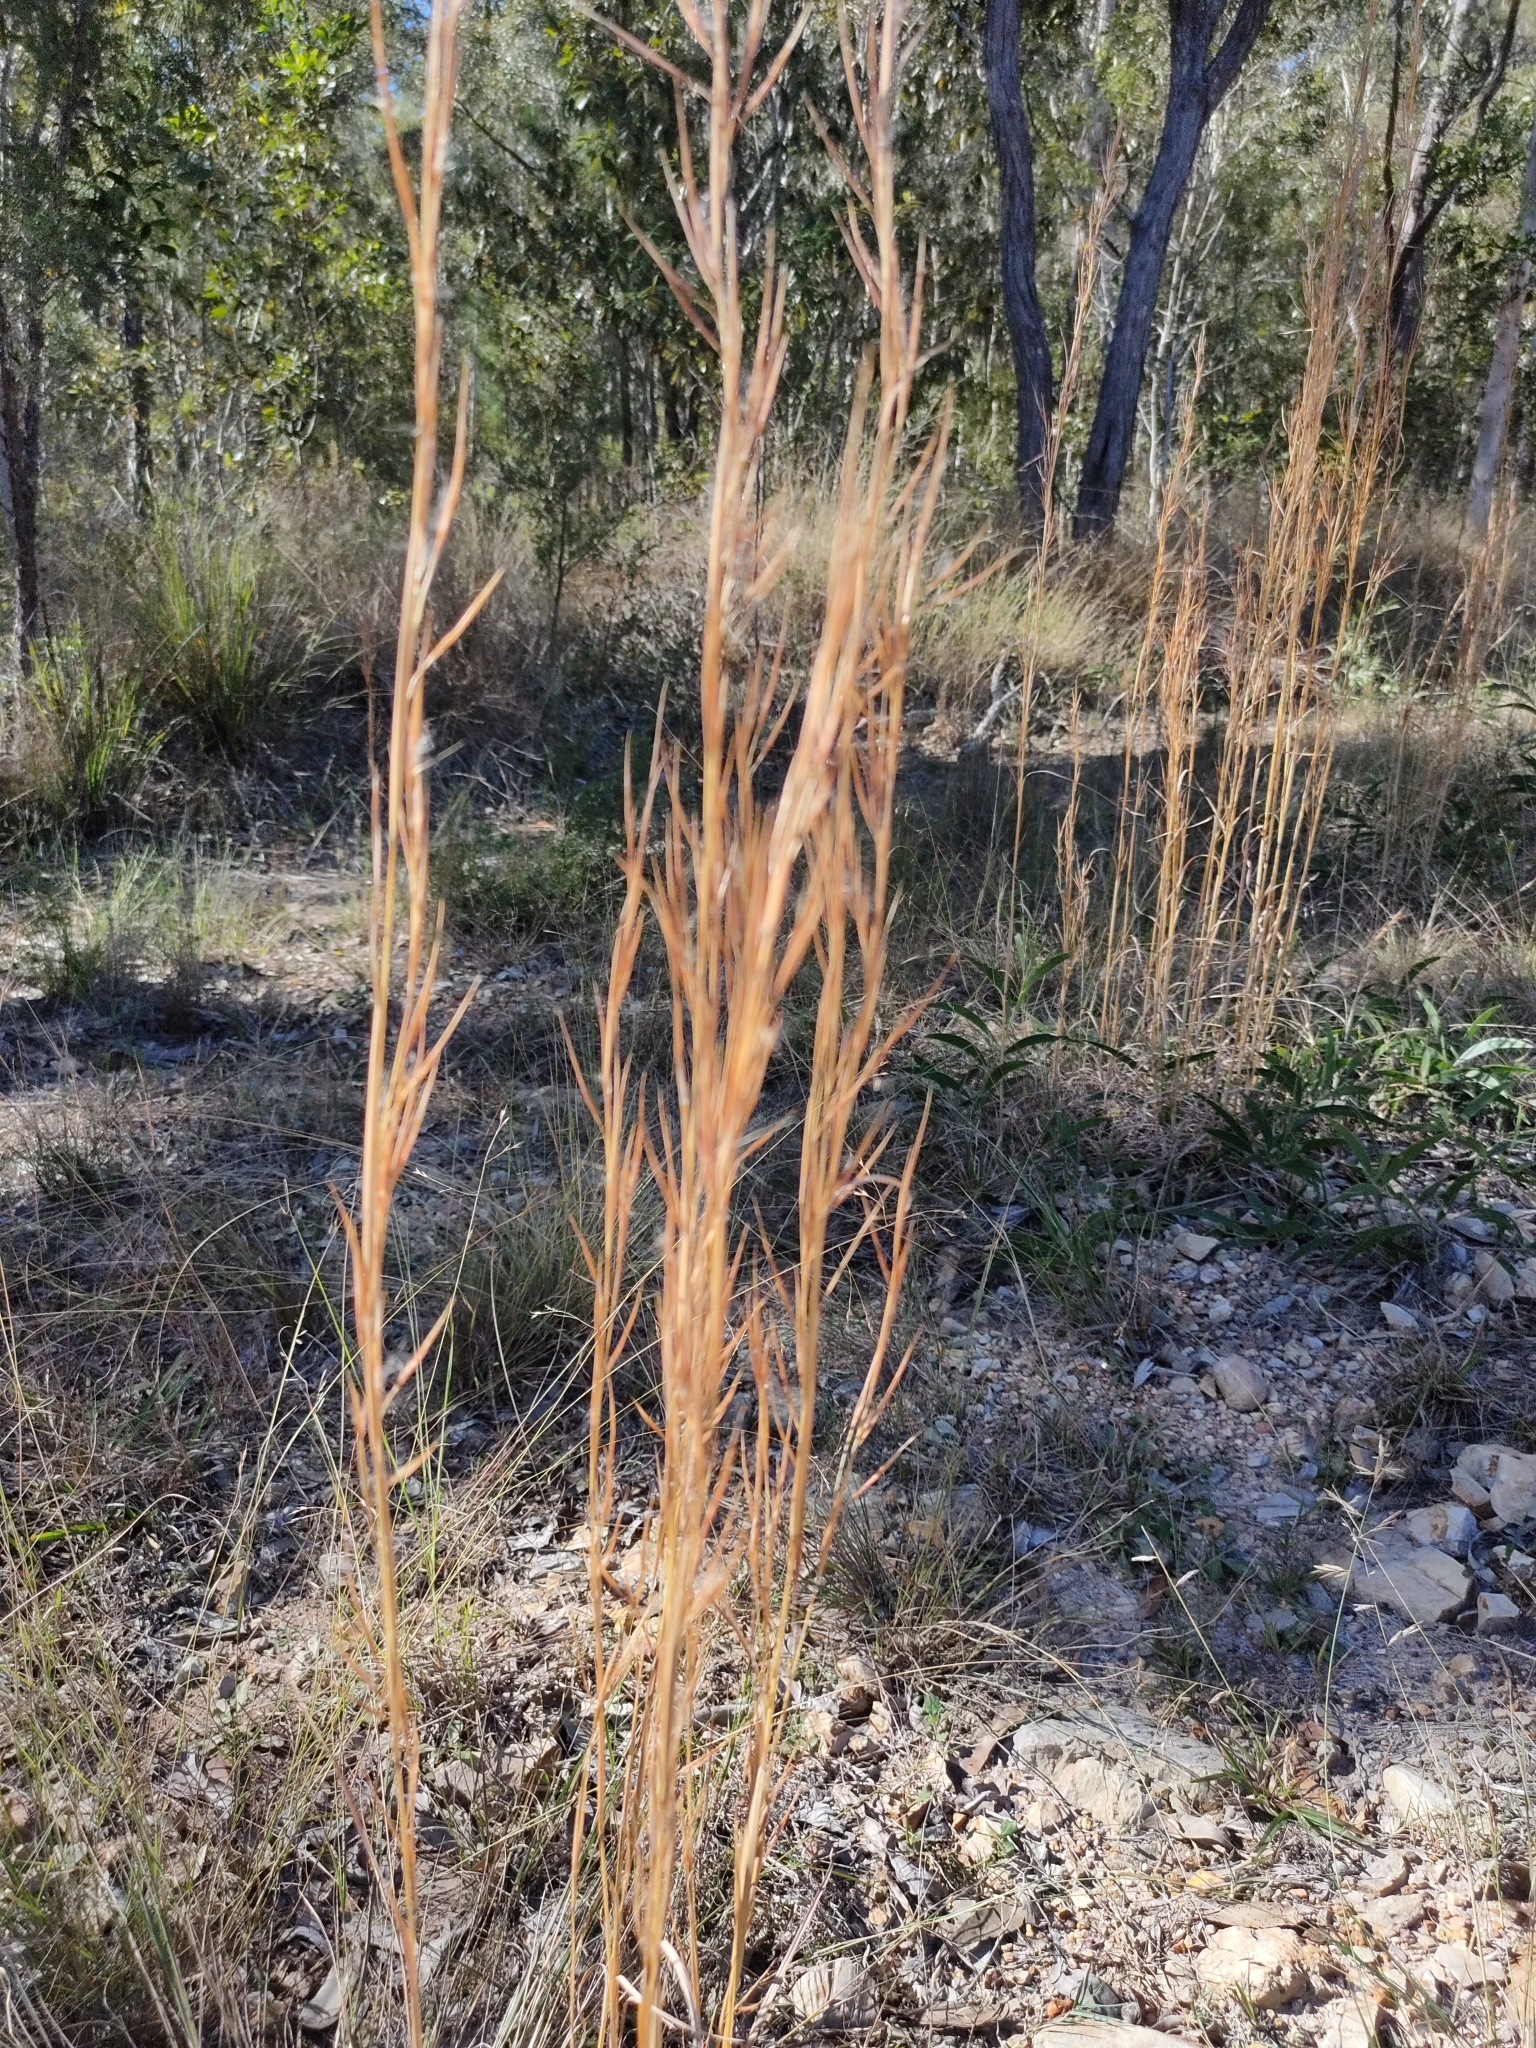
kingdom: Plantae
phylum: Tracheophyta
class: Liliopsida
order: Poales
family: Poaceae
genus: Andropogon
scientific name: Andropogon virginicus
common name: Broomsedge bluestem
